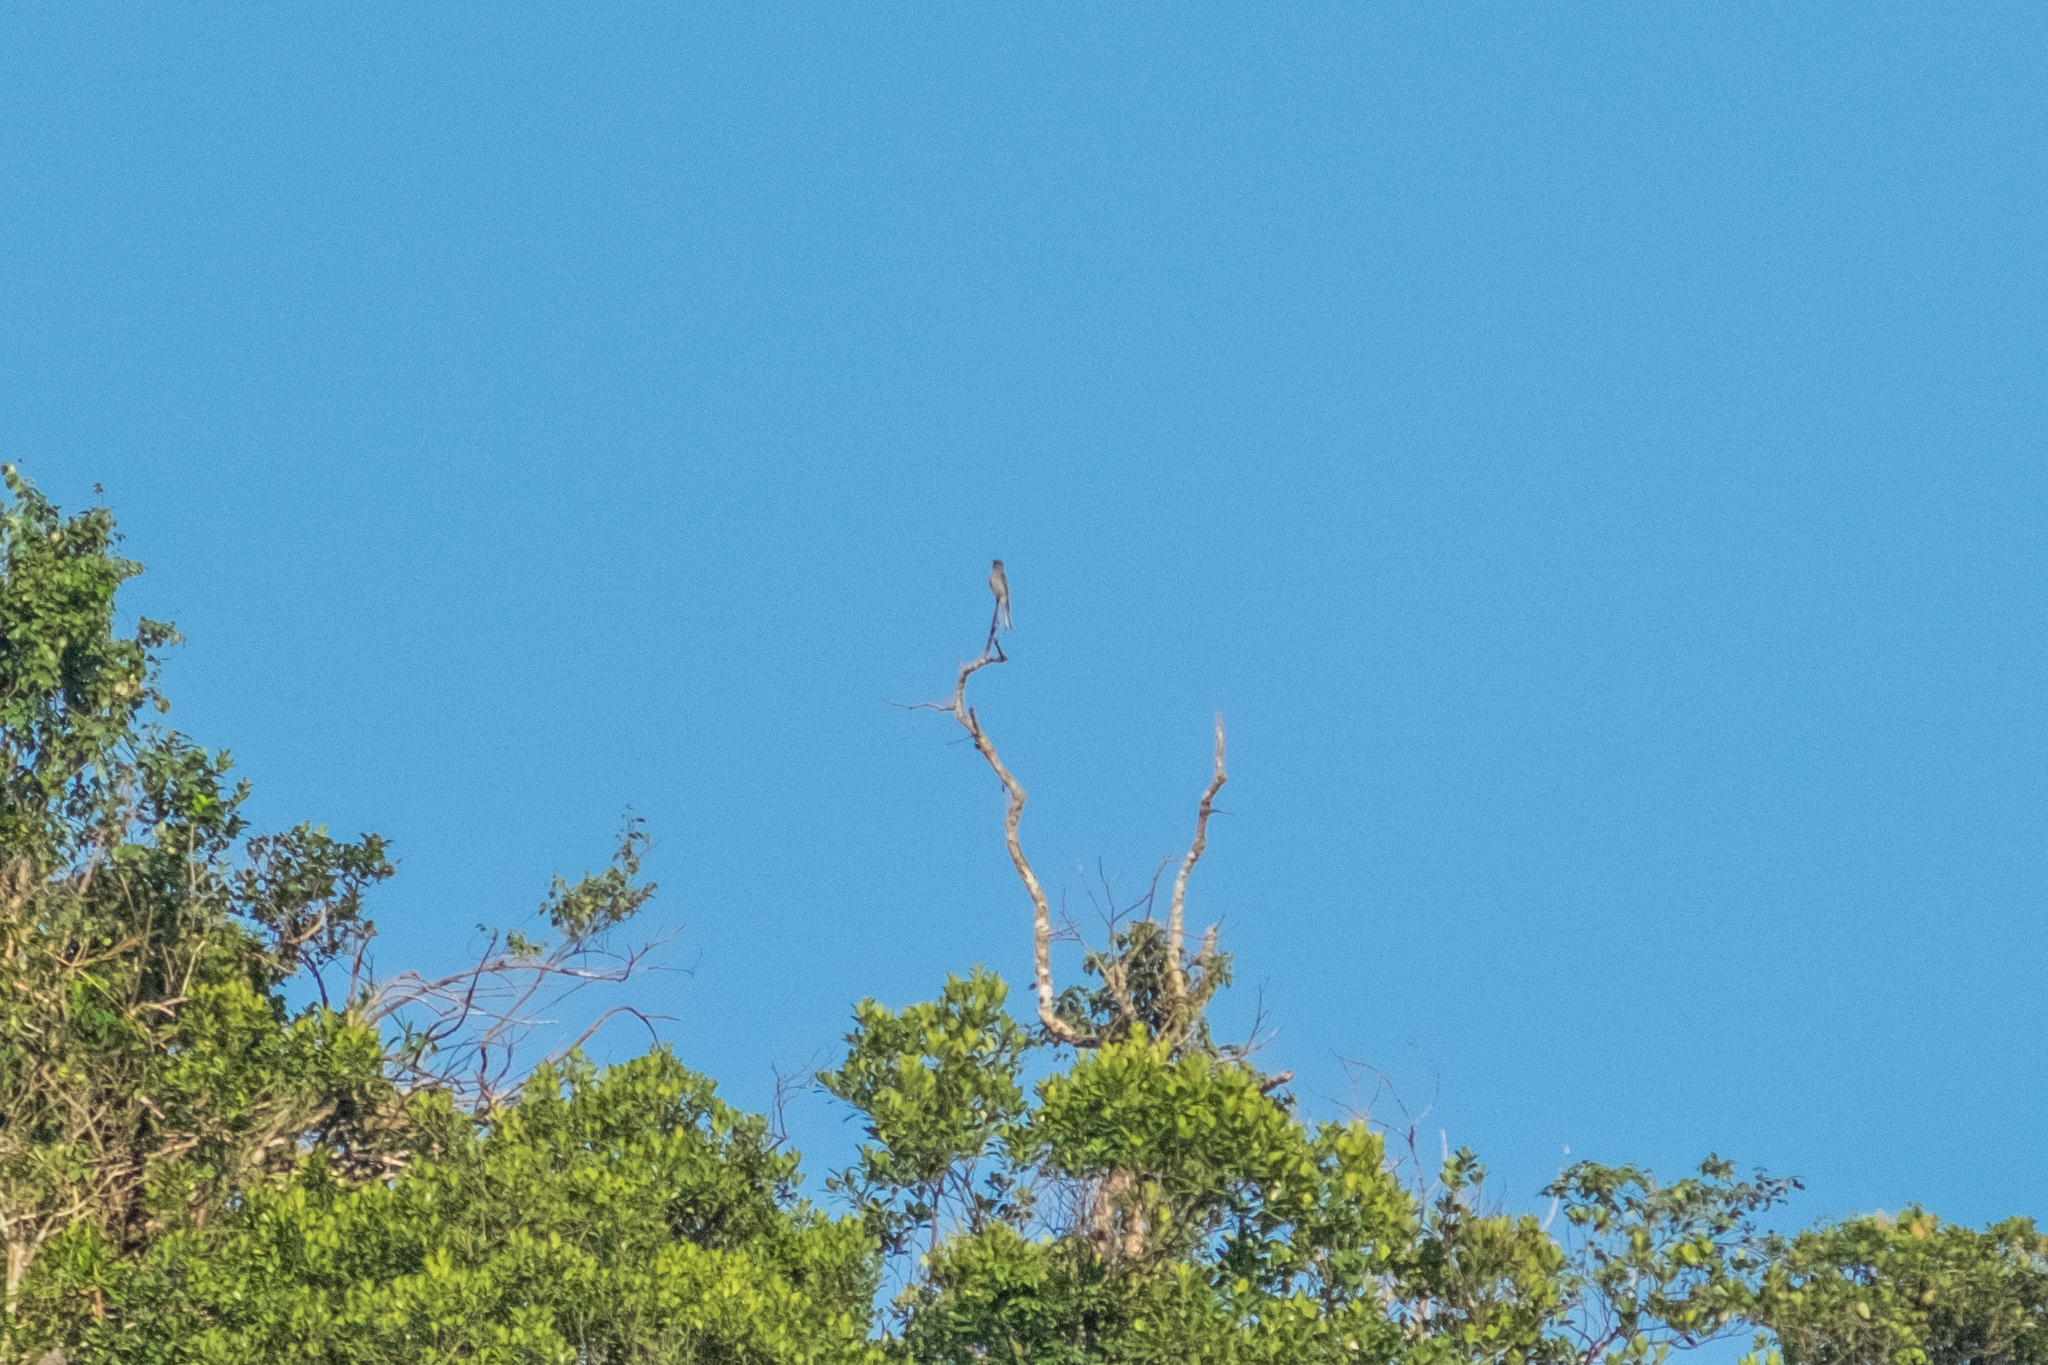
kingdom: Animalia
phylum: Chordata
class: Aves
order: Passeriformes
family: Dicruridae
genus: Dicrurus
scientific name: Dicrurus leucophaeus
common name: Ashy drongo
